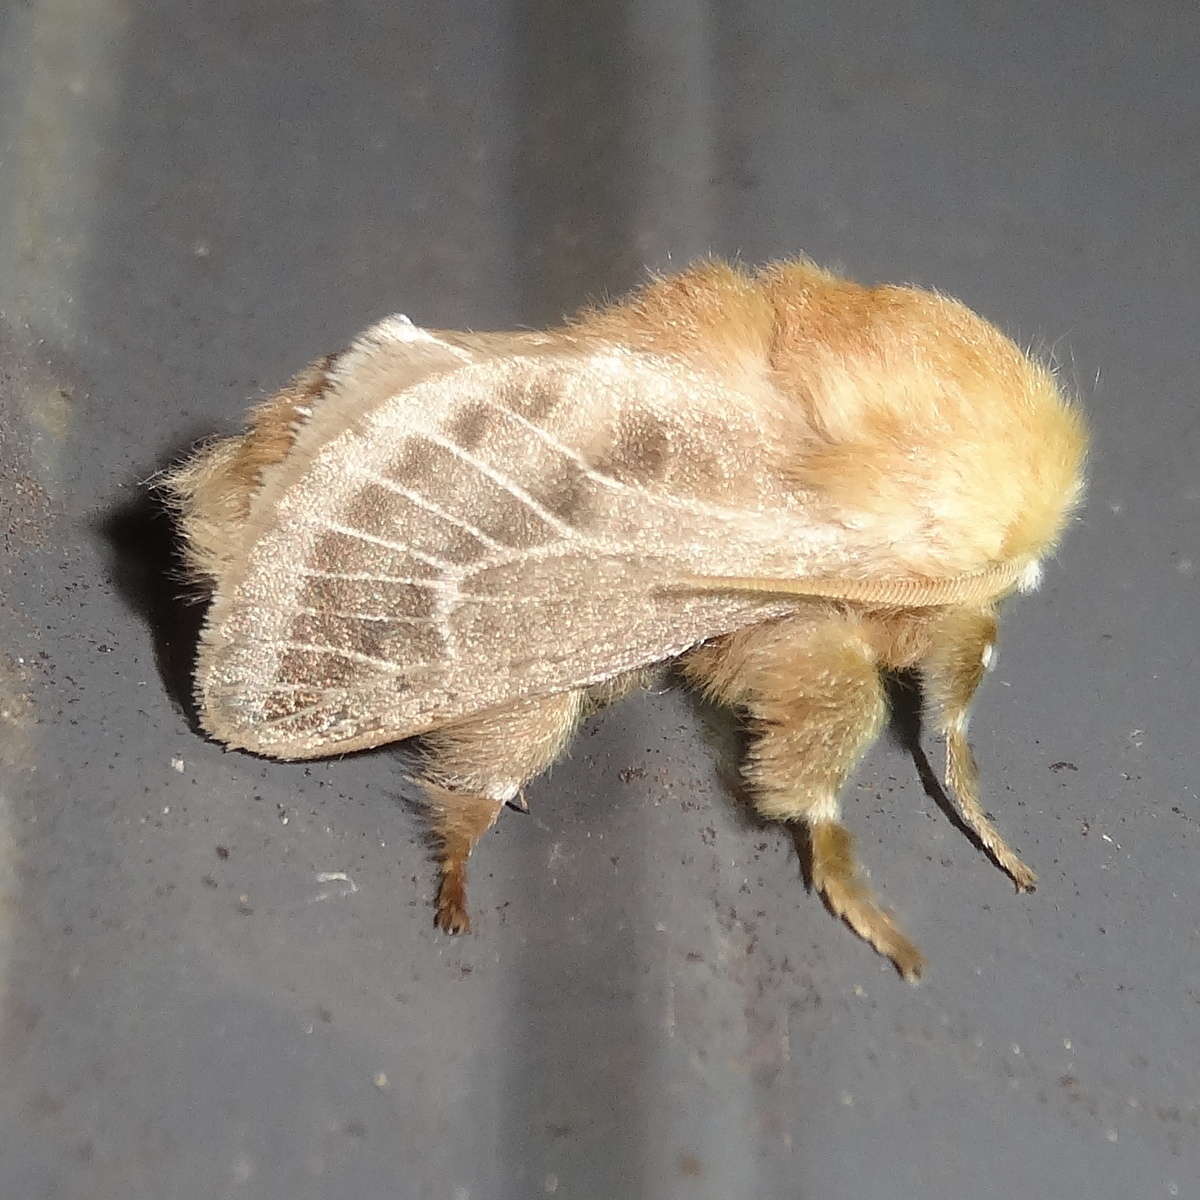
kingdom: Animalia
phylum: Arthropoda
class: Insecta
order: Lepidoptera
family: Limacodidae
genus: Doratifera
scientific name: Doratifera pinguis
